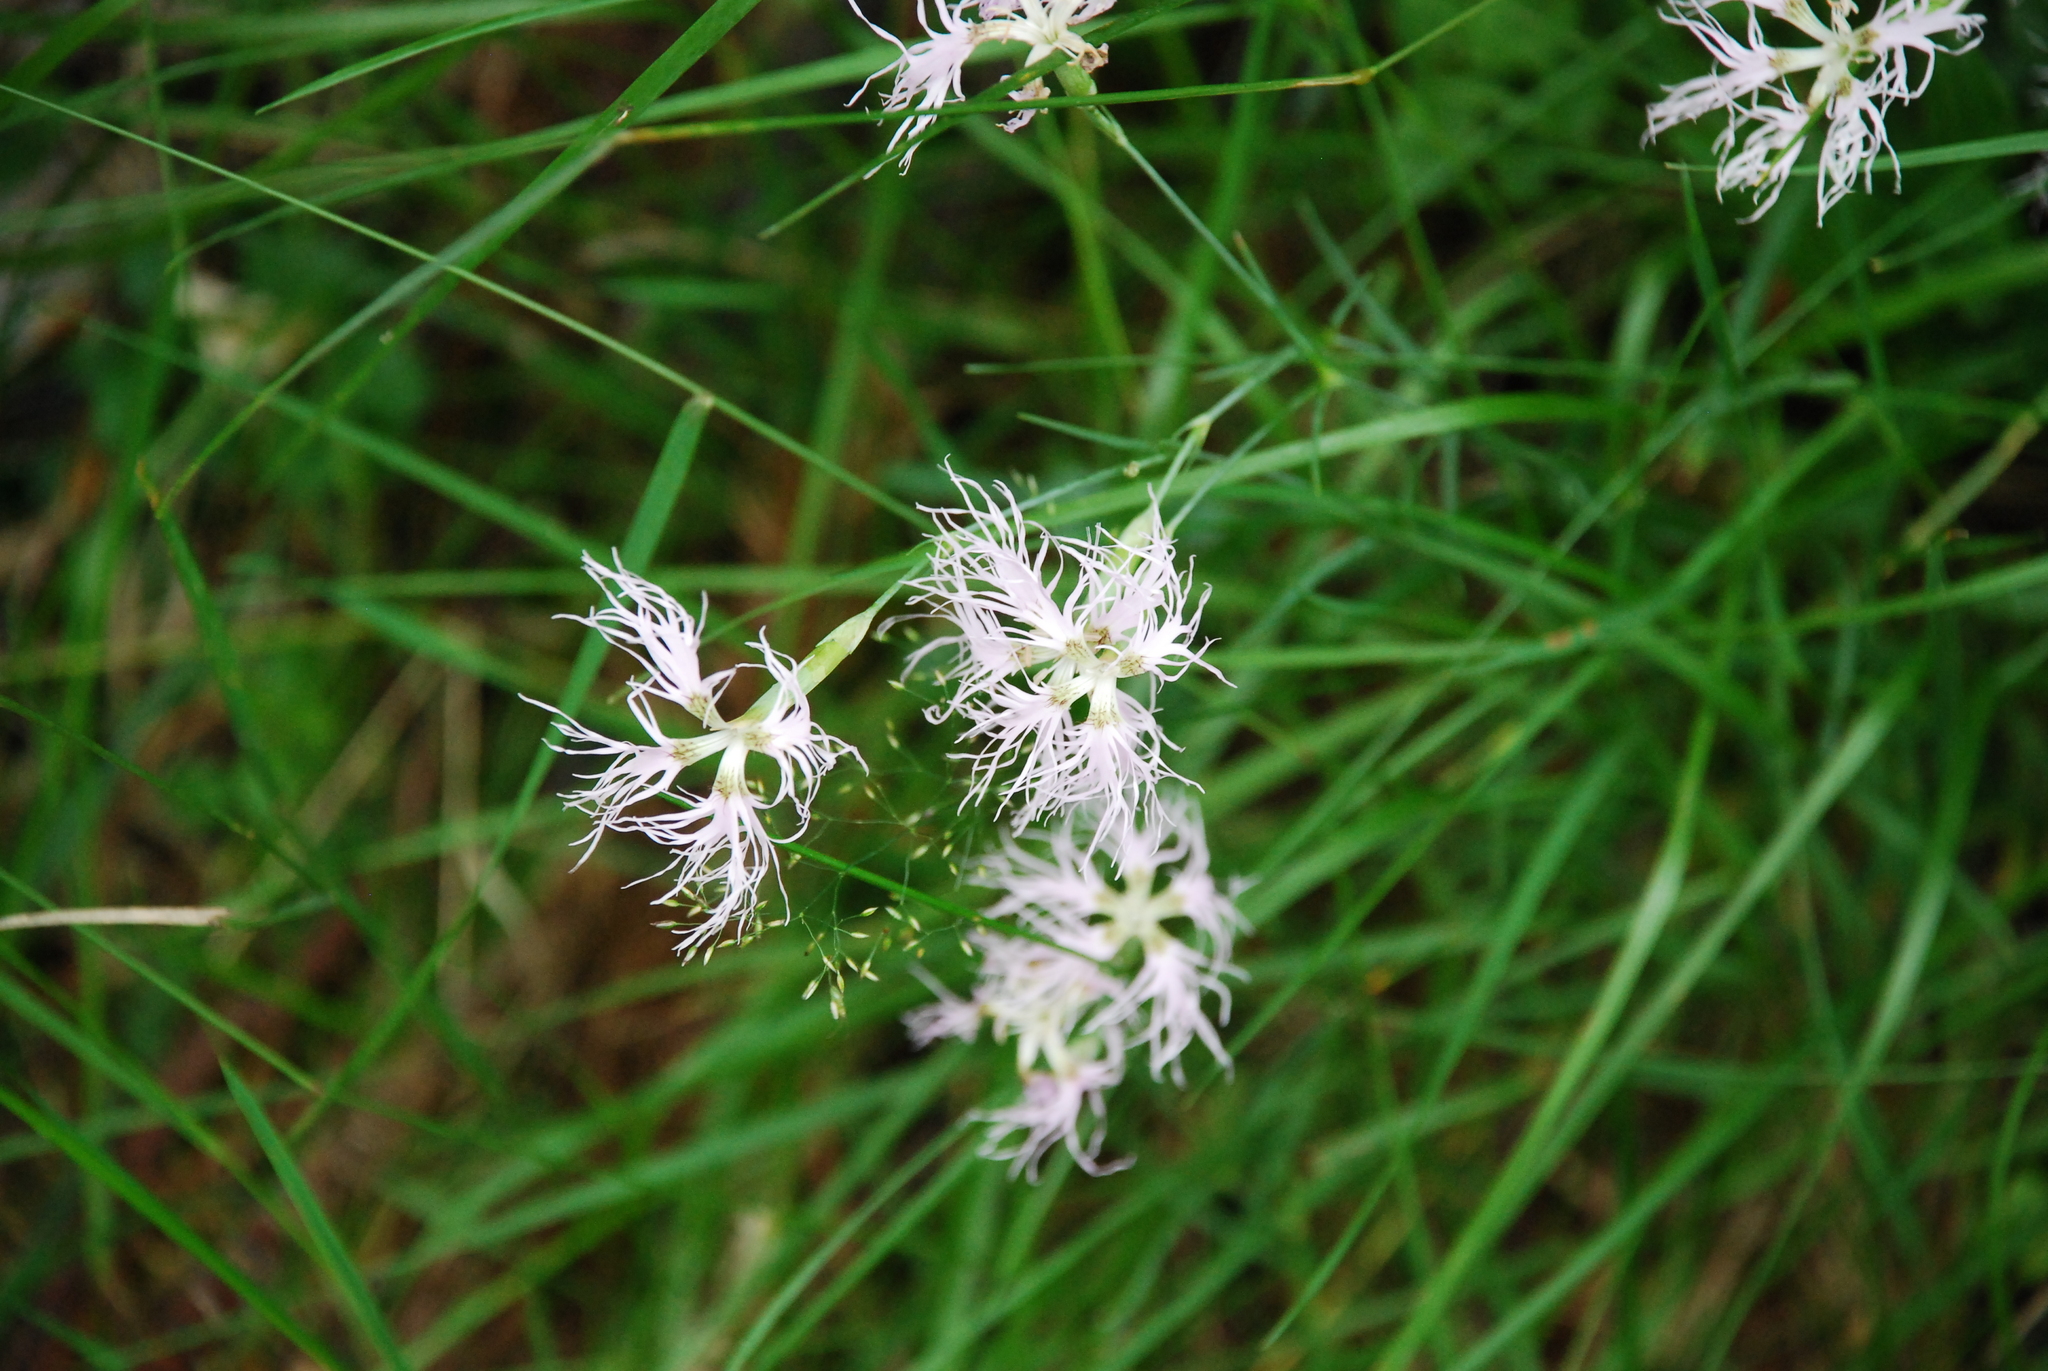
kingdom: Plantae
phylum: Tracheophyta
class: Magnoliopsida
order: Caryophyllales
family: Caryophyllaceae
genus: Dianthus
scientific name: Dianthus superbus
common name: Fringed pink
